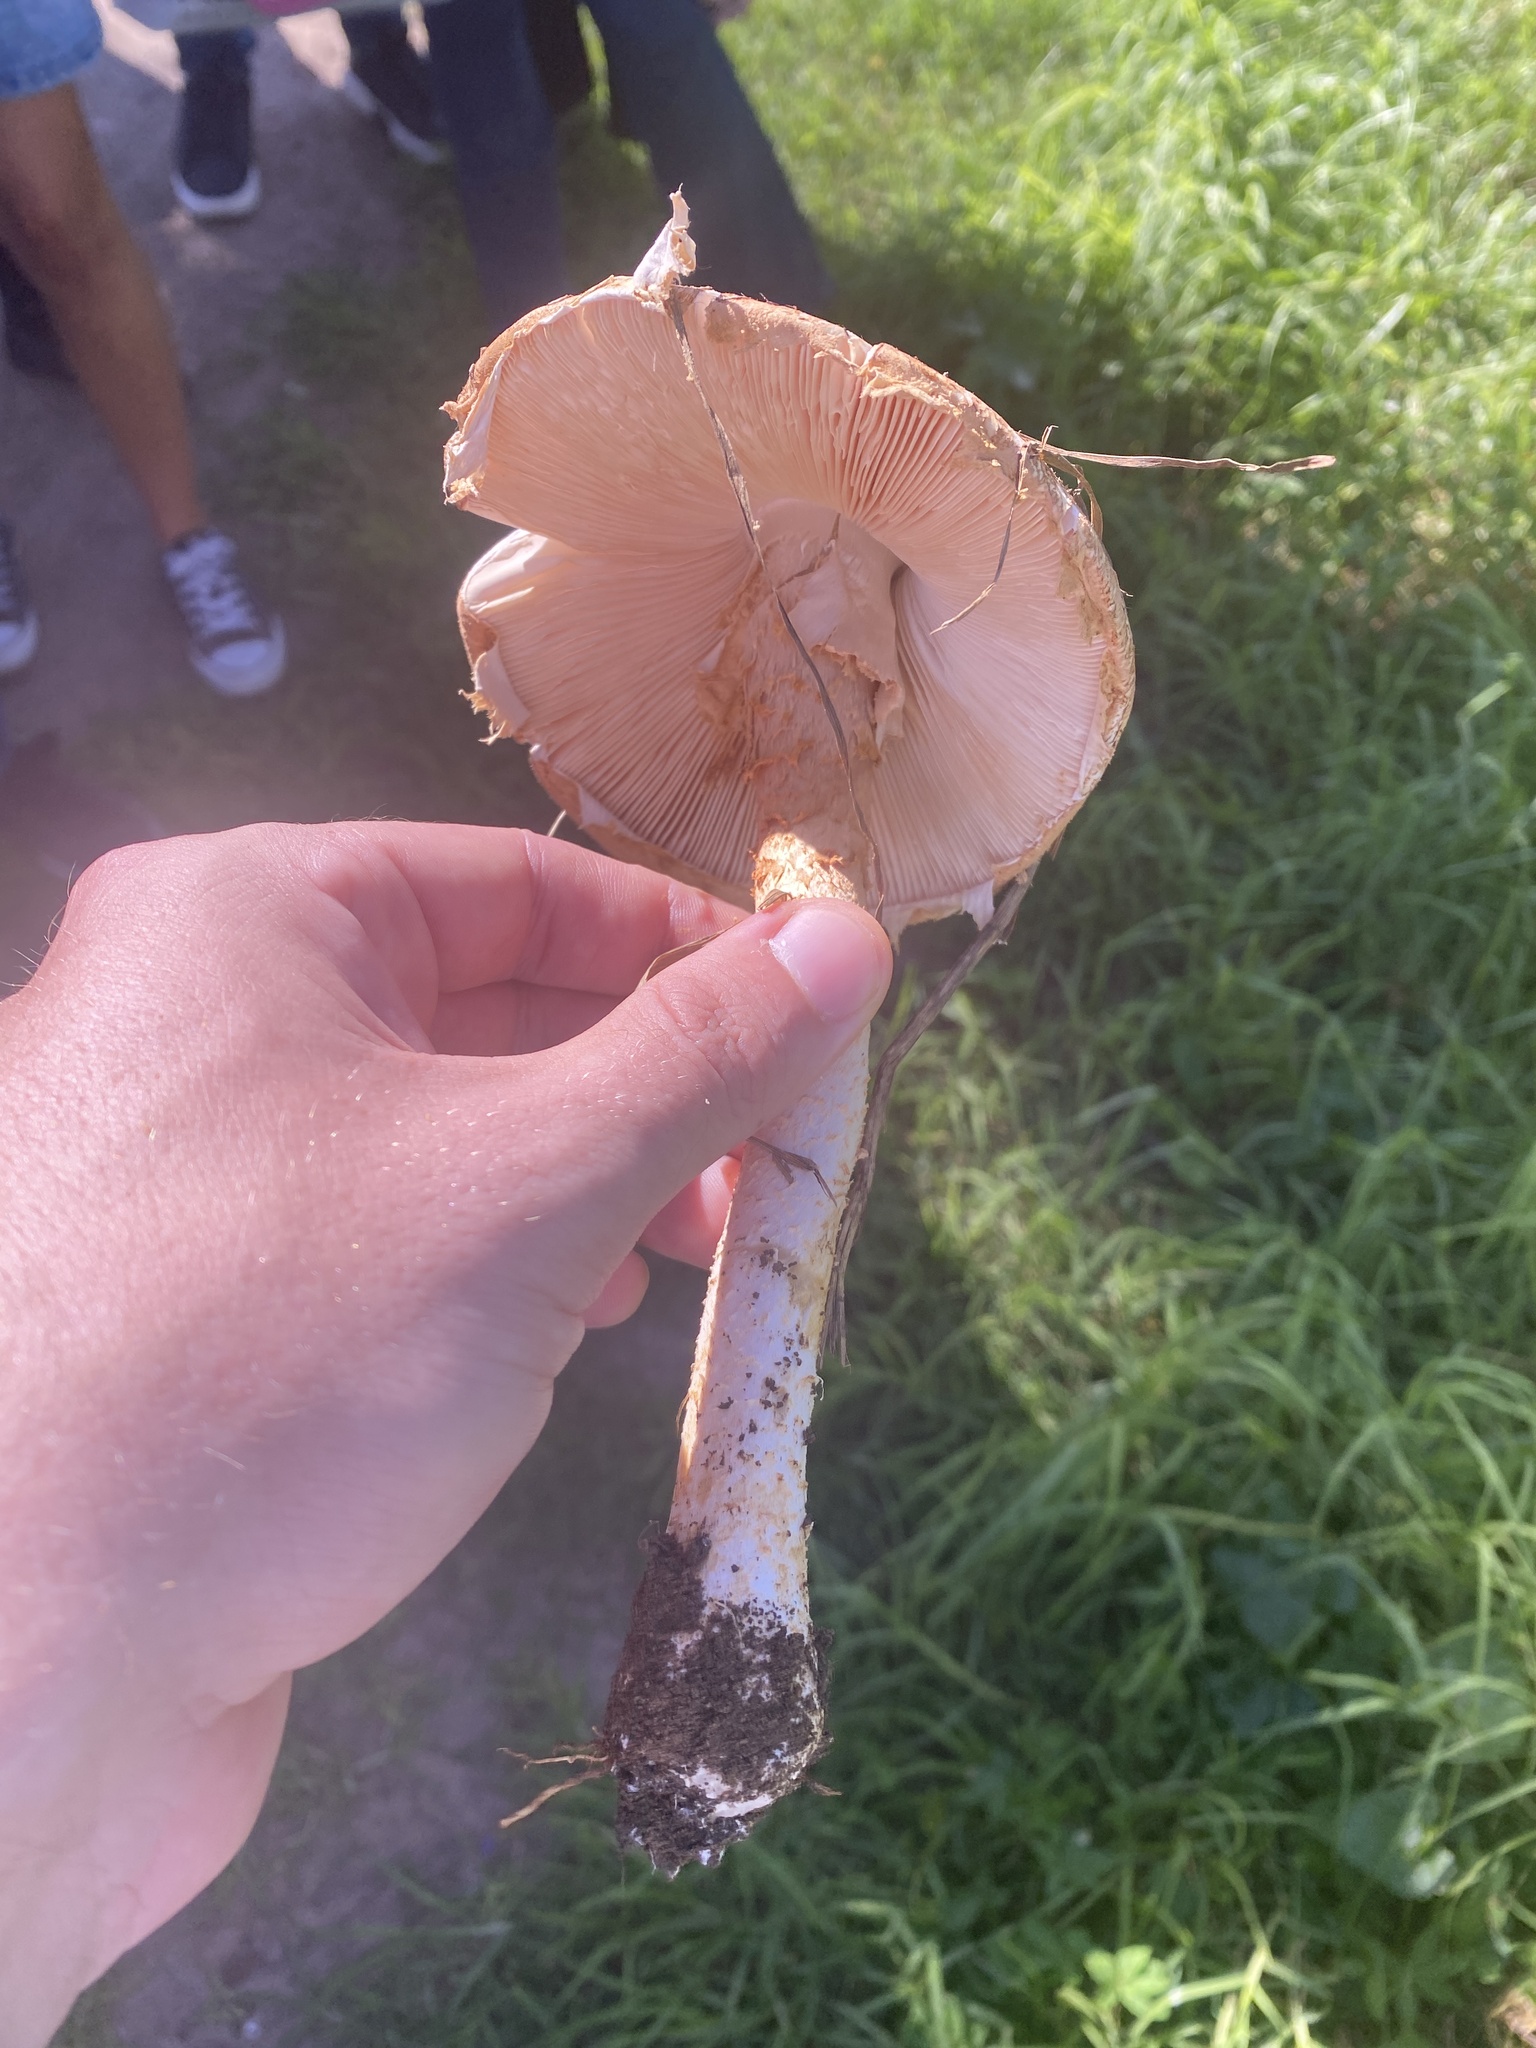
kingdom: Fungi
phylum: Basidiomycota
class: Agaricomycetes
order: Agaricales
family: Amanitaceae
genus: Aspidella
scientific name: Aspidella foetens
